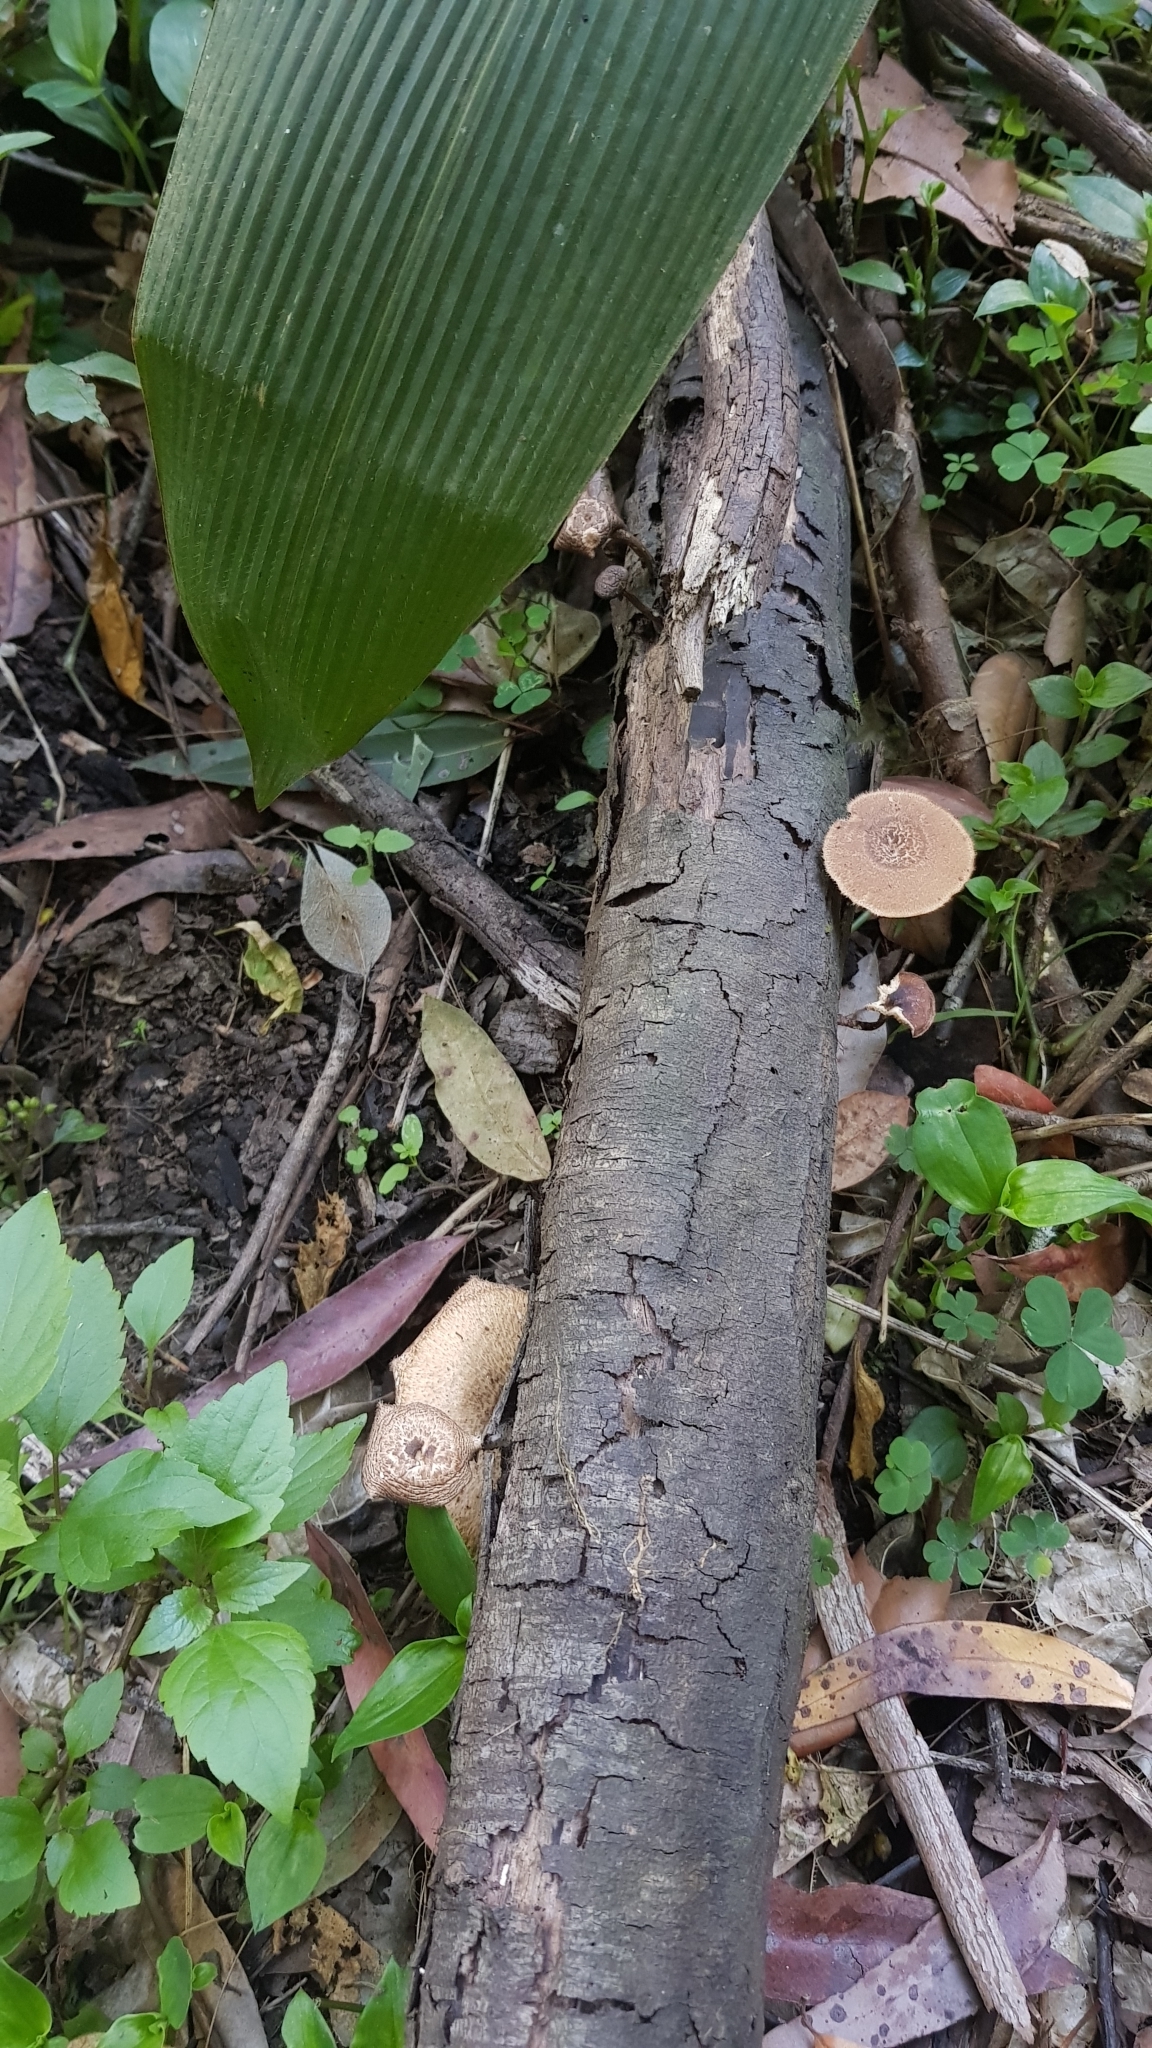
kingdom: Fungi
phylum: Basidiomycota
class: Agaricomycetes
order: Polyporales
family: Polyporaceae
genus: Lentinus
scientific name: Lentinus arcularius
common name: Spring polypore
